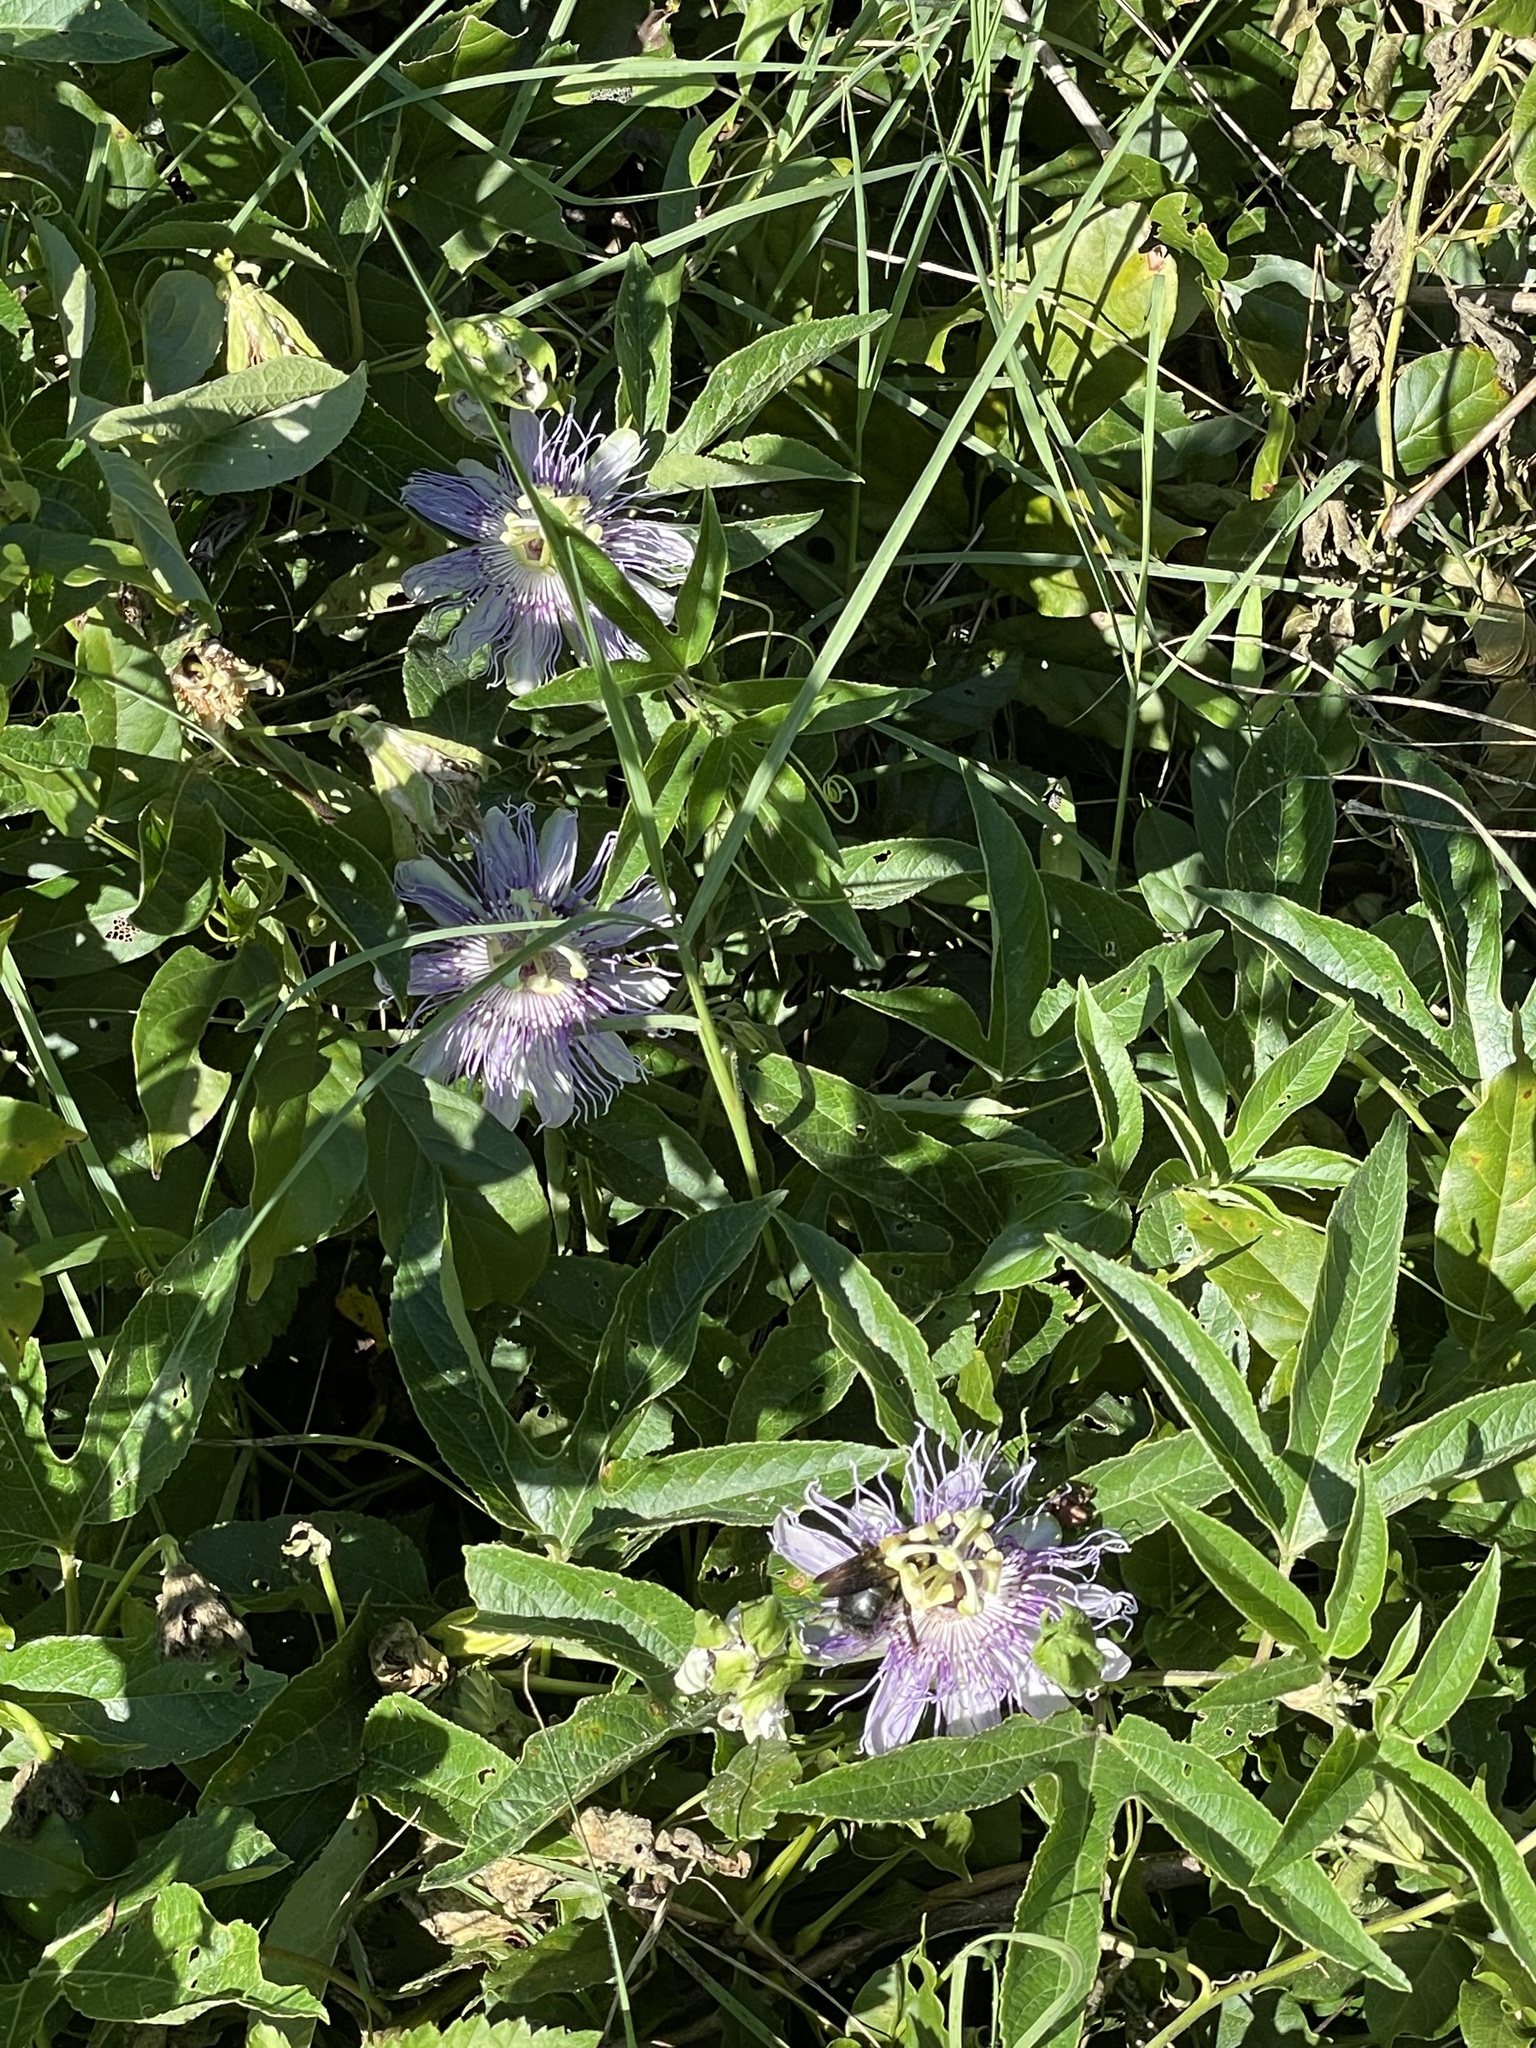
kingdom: Plantae
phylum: Tracheophyta
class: Magnoliopsida
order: Malpighiales
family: Passifloraceae
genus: Passiflora
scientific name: Passiflora incarnata
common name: Apricot-vine
